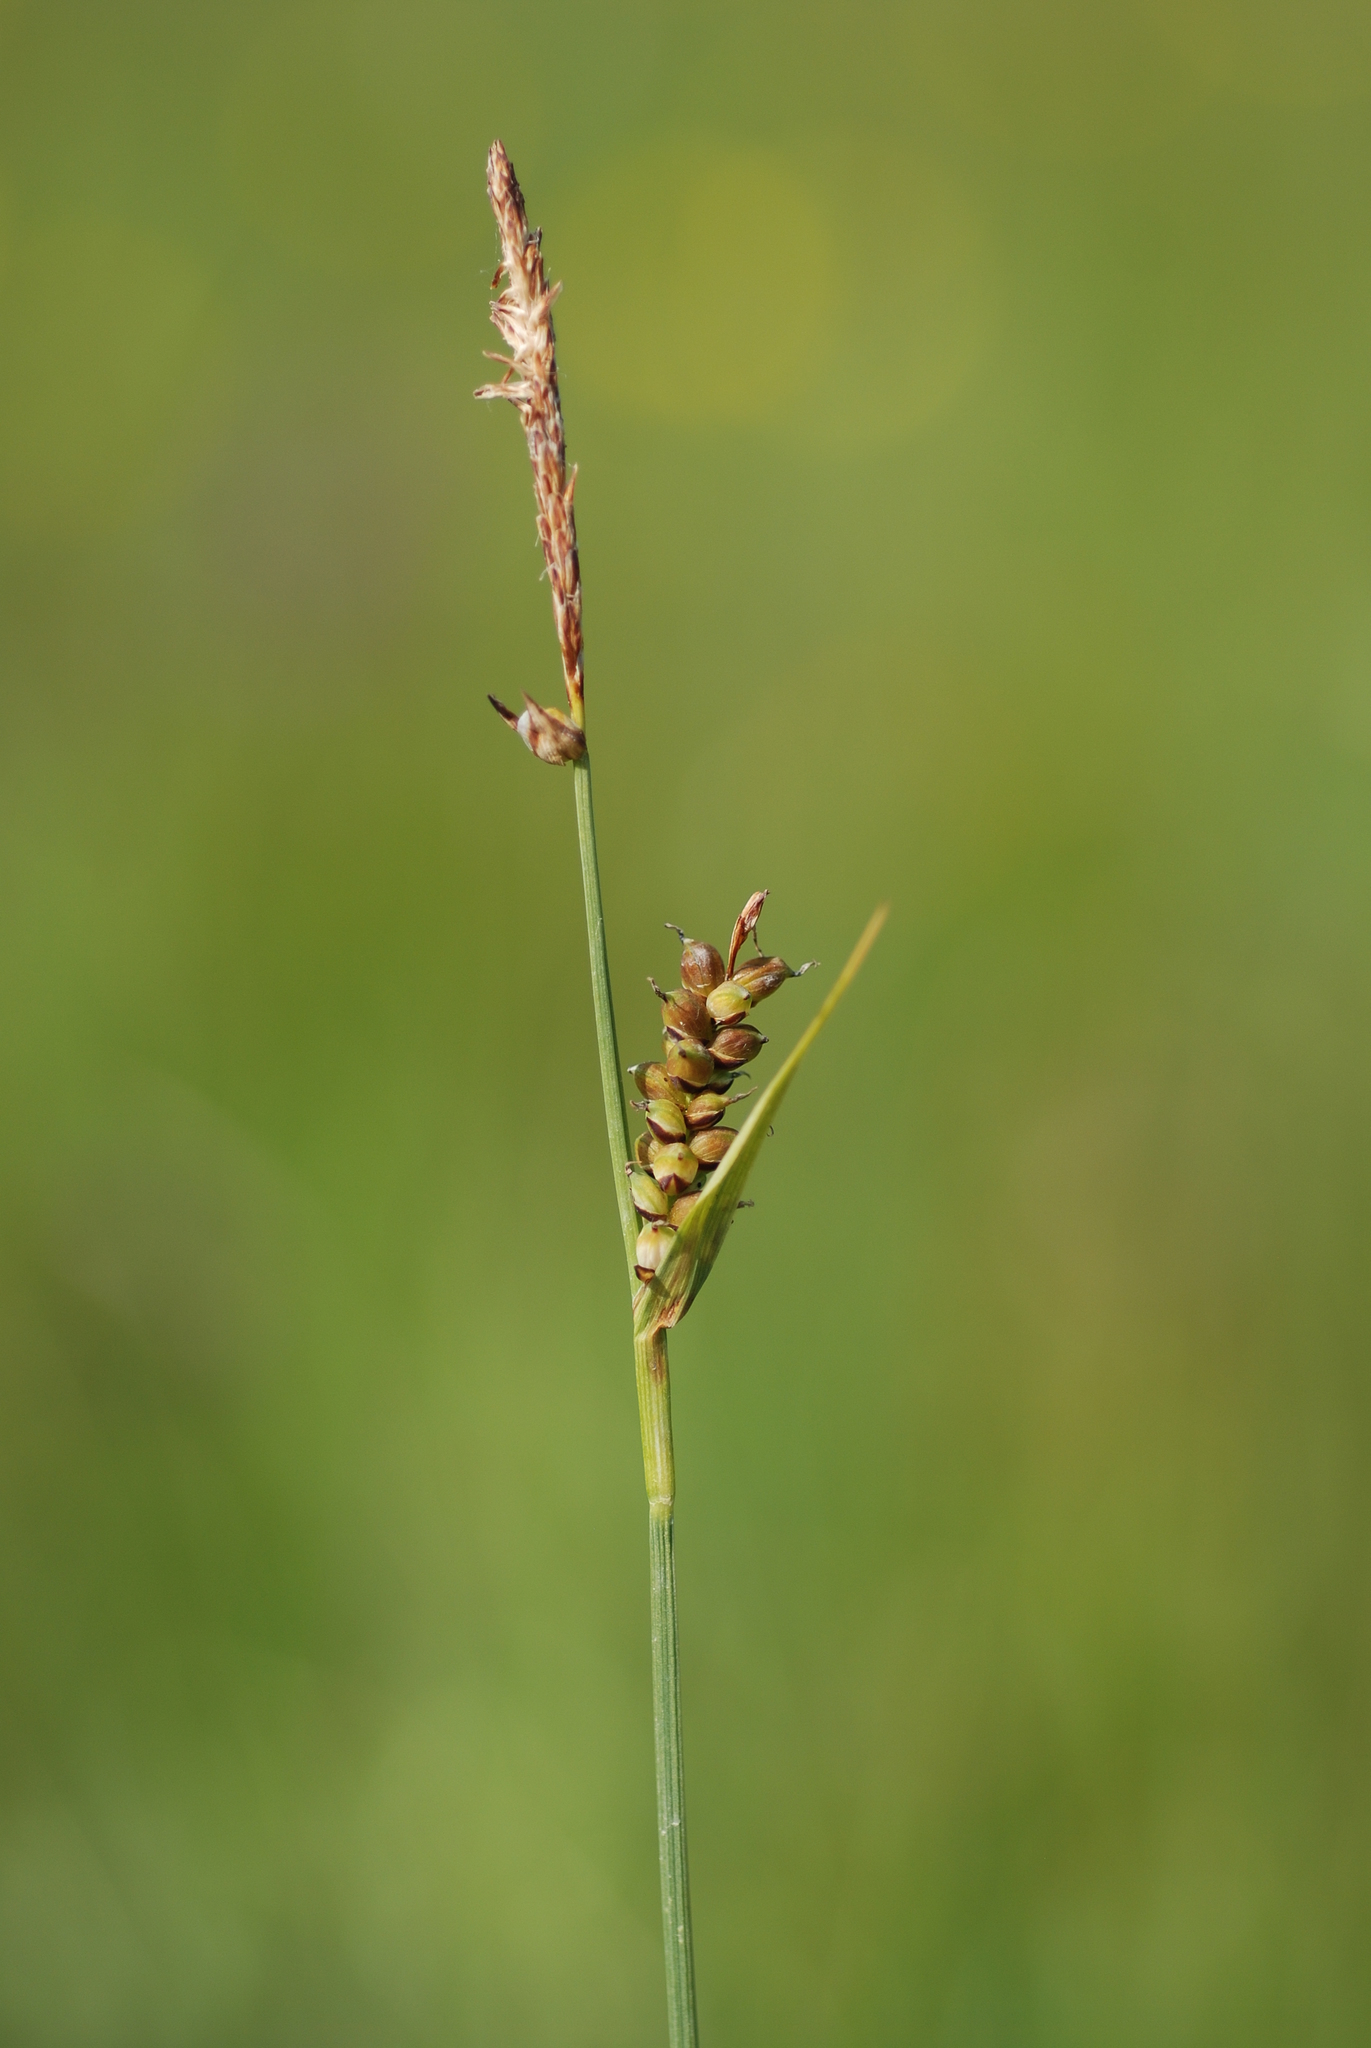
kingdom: Plantae
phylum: Tracheophyta
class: Liliopsida
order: Poales
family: Cyperaceae
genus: Carex
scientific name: Carex panicea
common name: Carnation sedge
